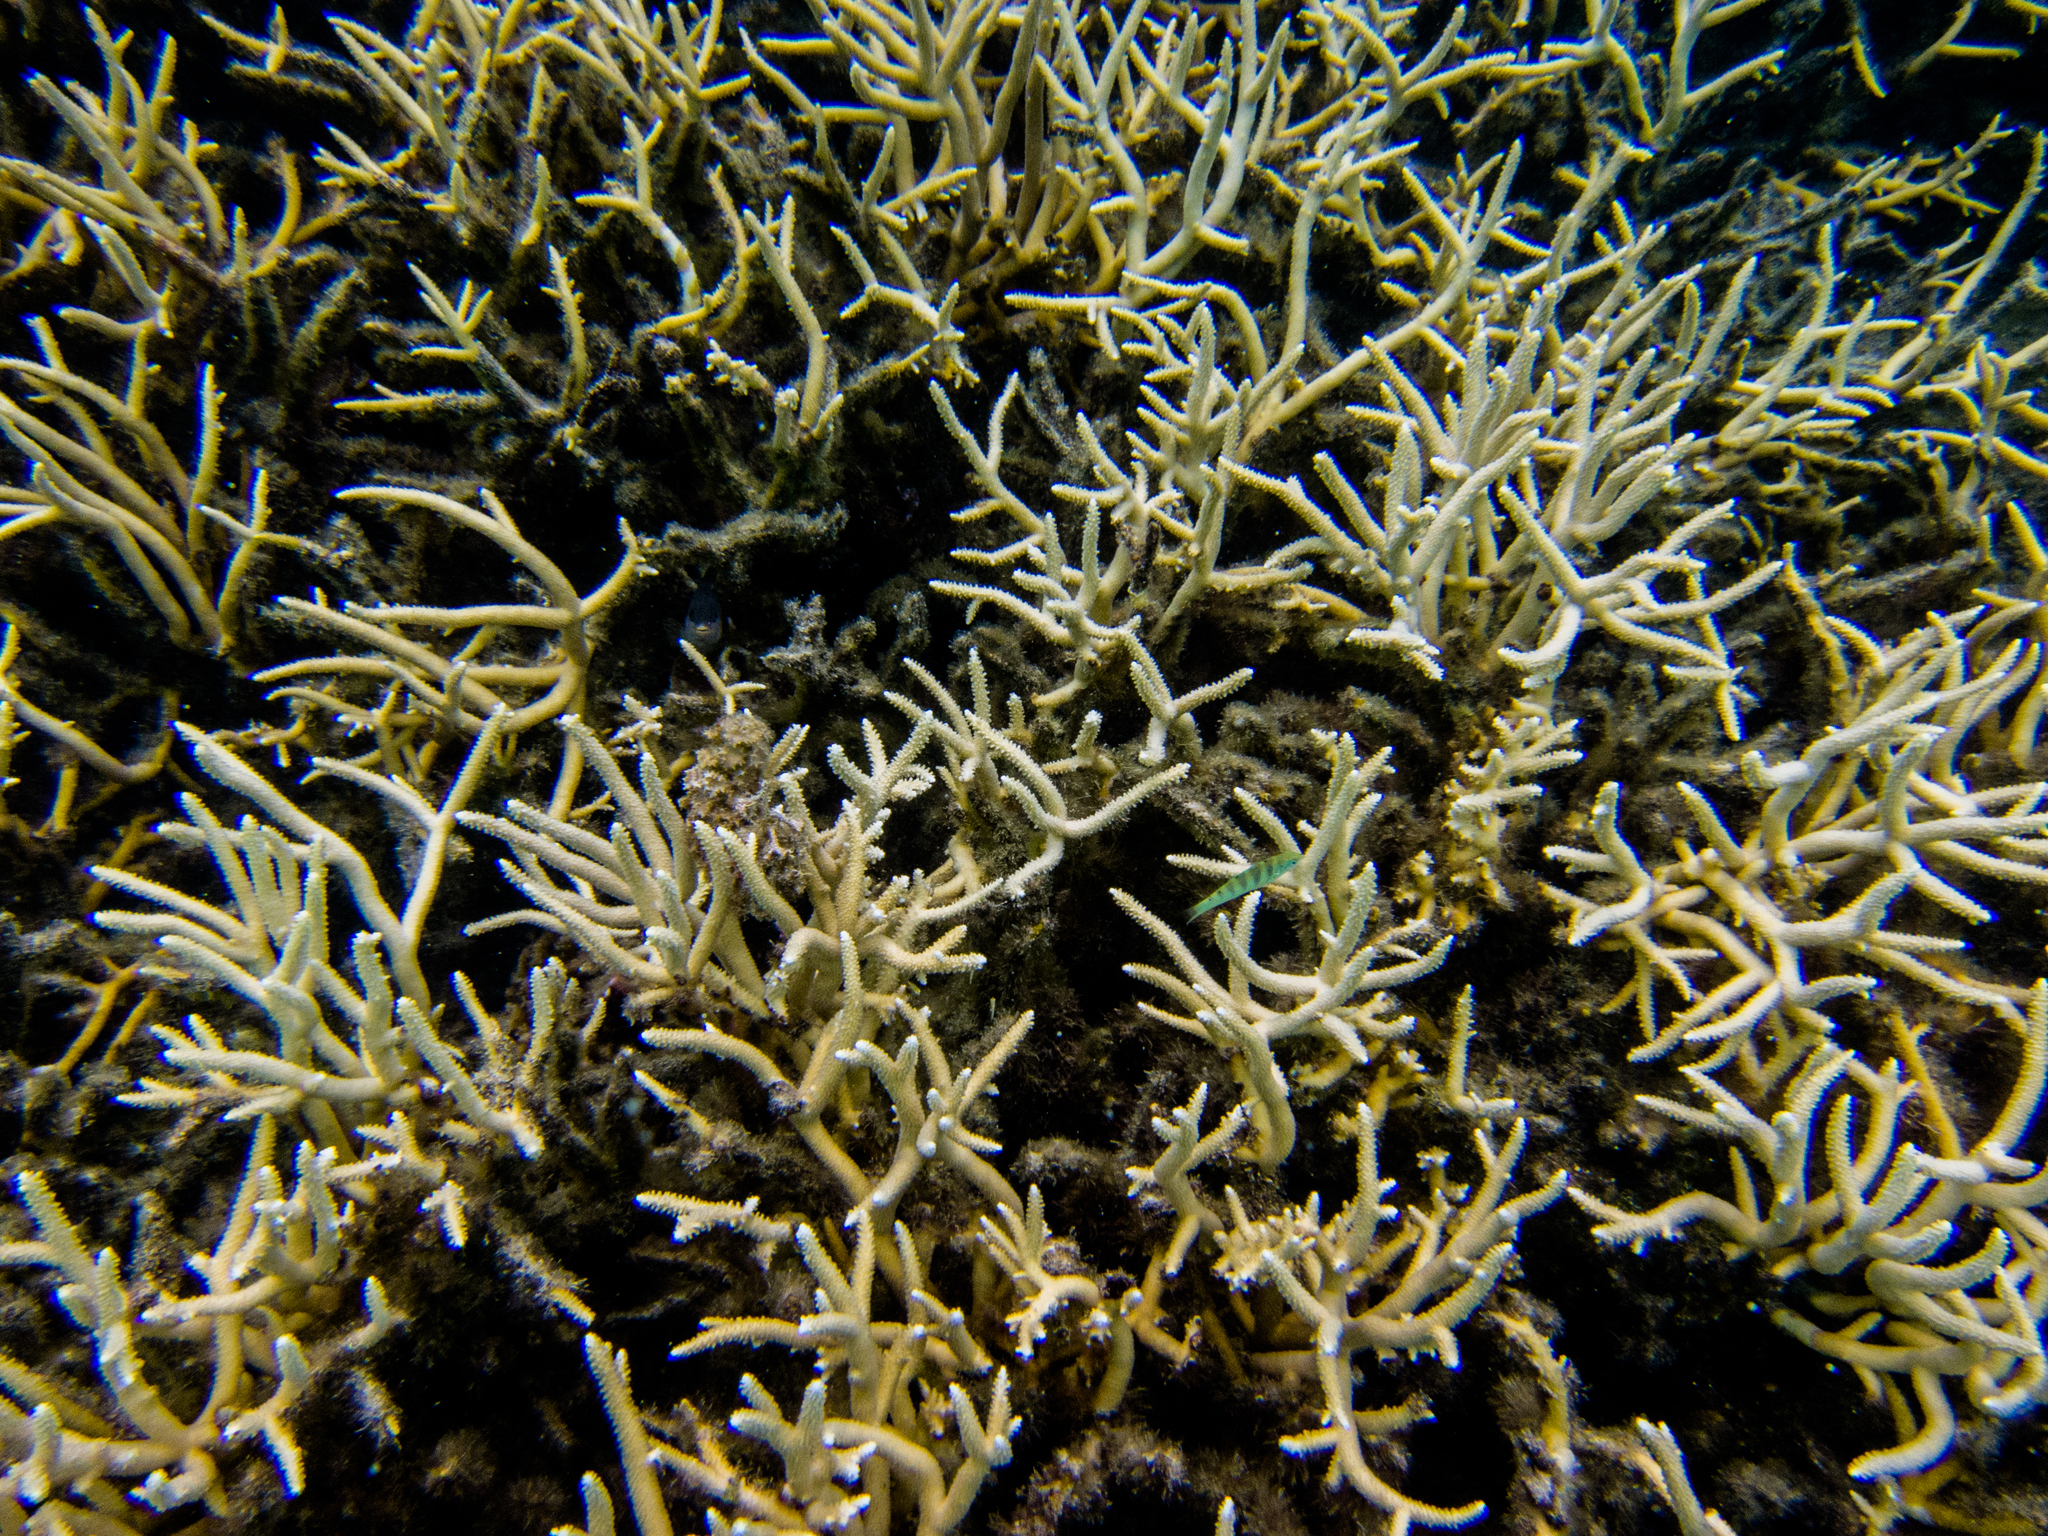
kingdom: Animalia
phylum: Chordata
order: Perciformes
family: Labridae
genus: Thalassoma
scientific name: Thalassoma hardwicke
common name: Sixbar wrasse
